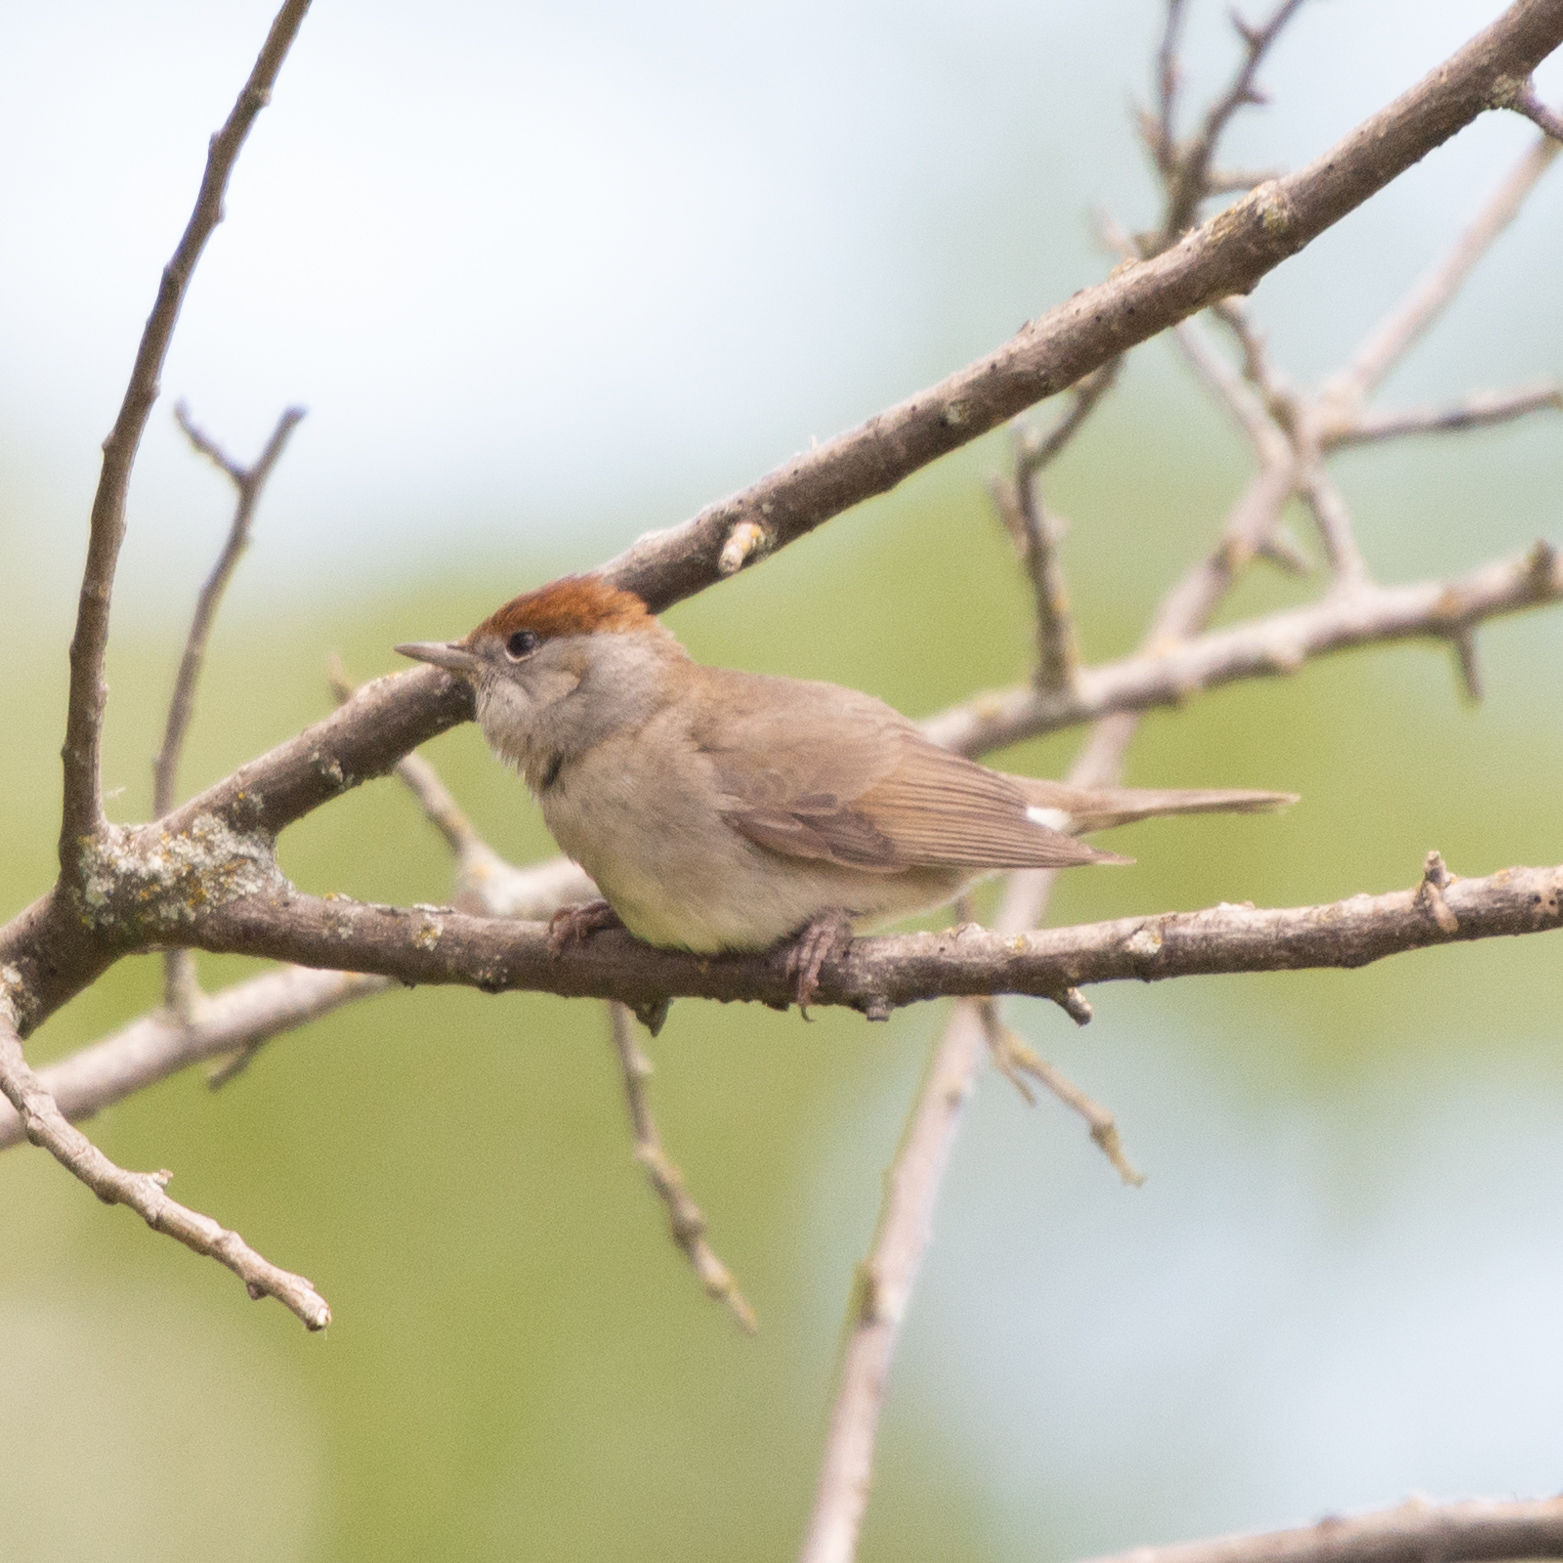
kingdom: Animalia
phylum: Chordata
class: Aves
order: Passeriformes
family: Sylviidae
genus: Sylvia
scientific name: Sylvia atricapilla
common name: Eurasian blackcap
